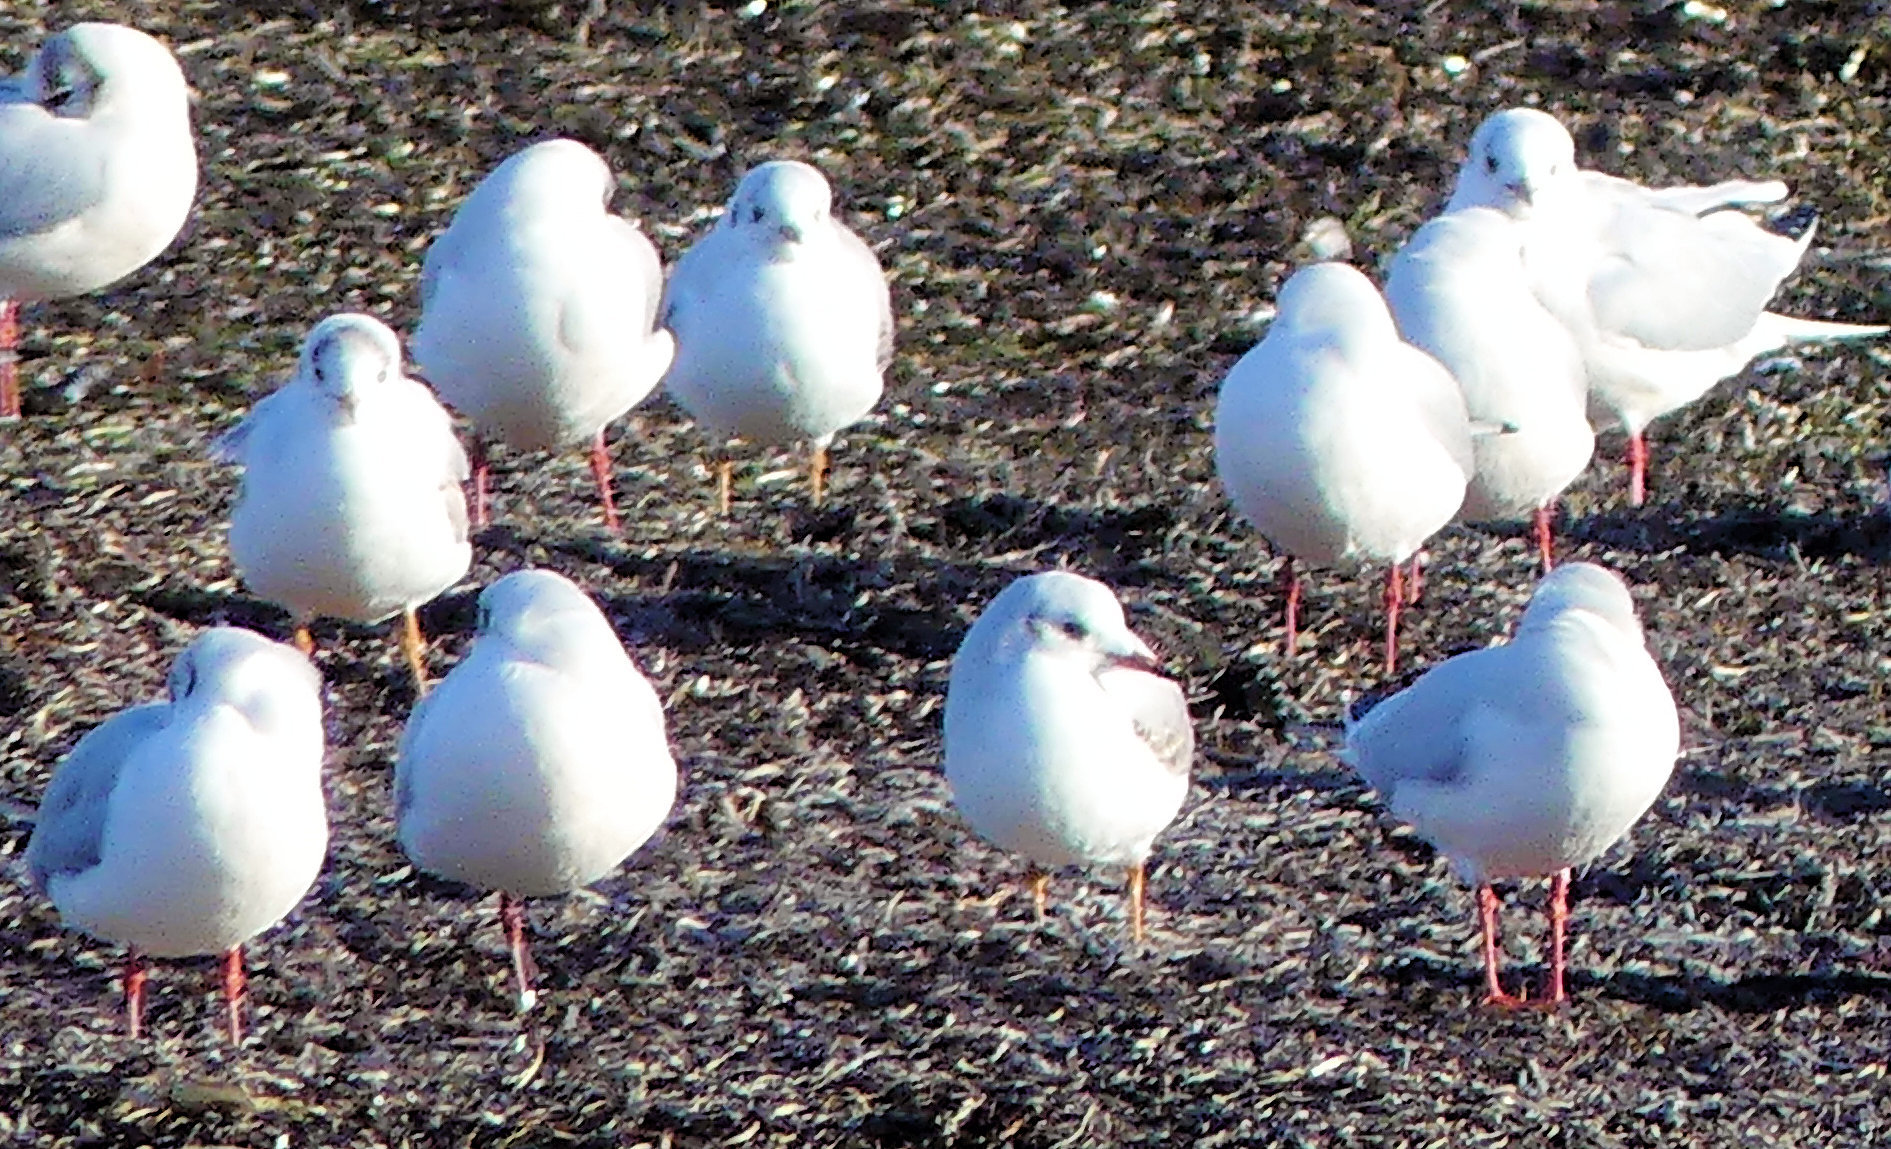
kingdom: Animalia
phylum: Chordata
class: Aves
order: Charadriiformes
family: Laridae
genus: Chroicocephalus
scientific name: Chroicocephalus ridibundus
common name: Black-headed gull
